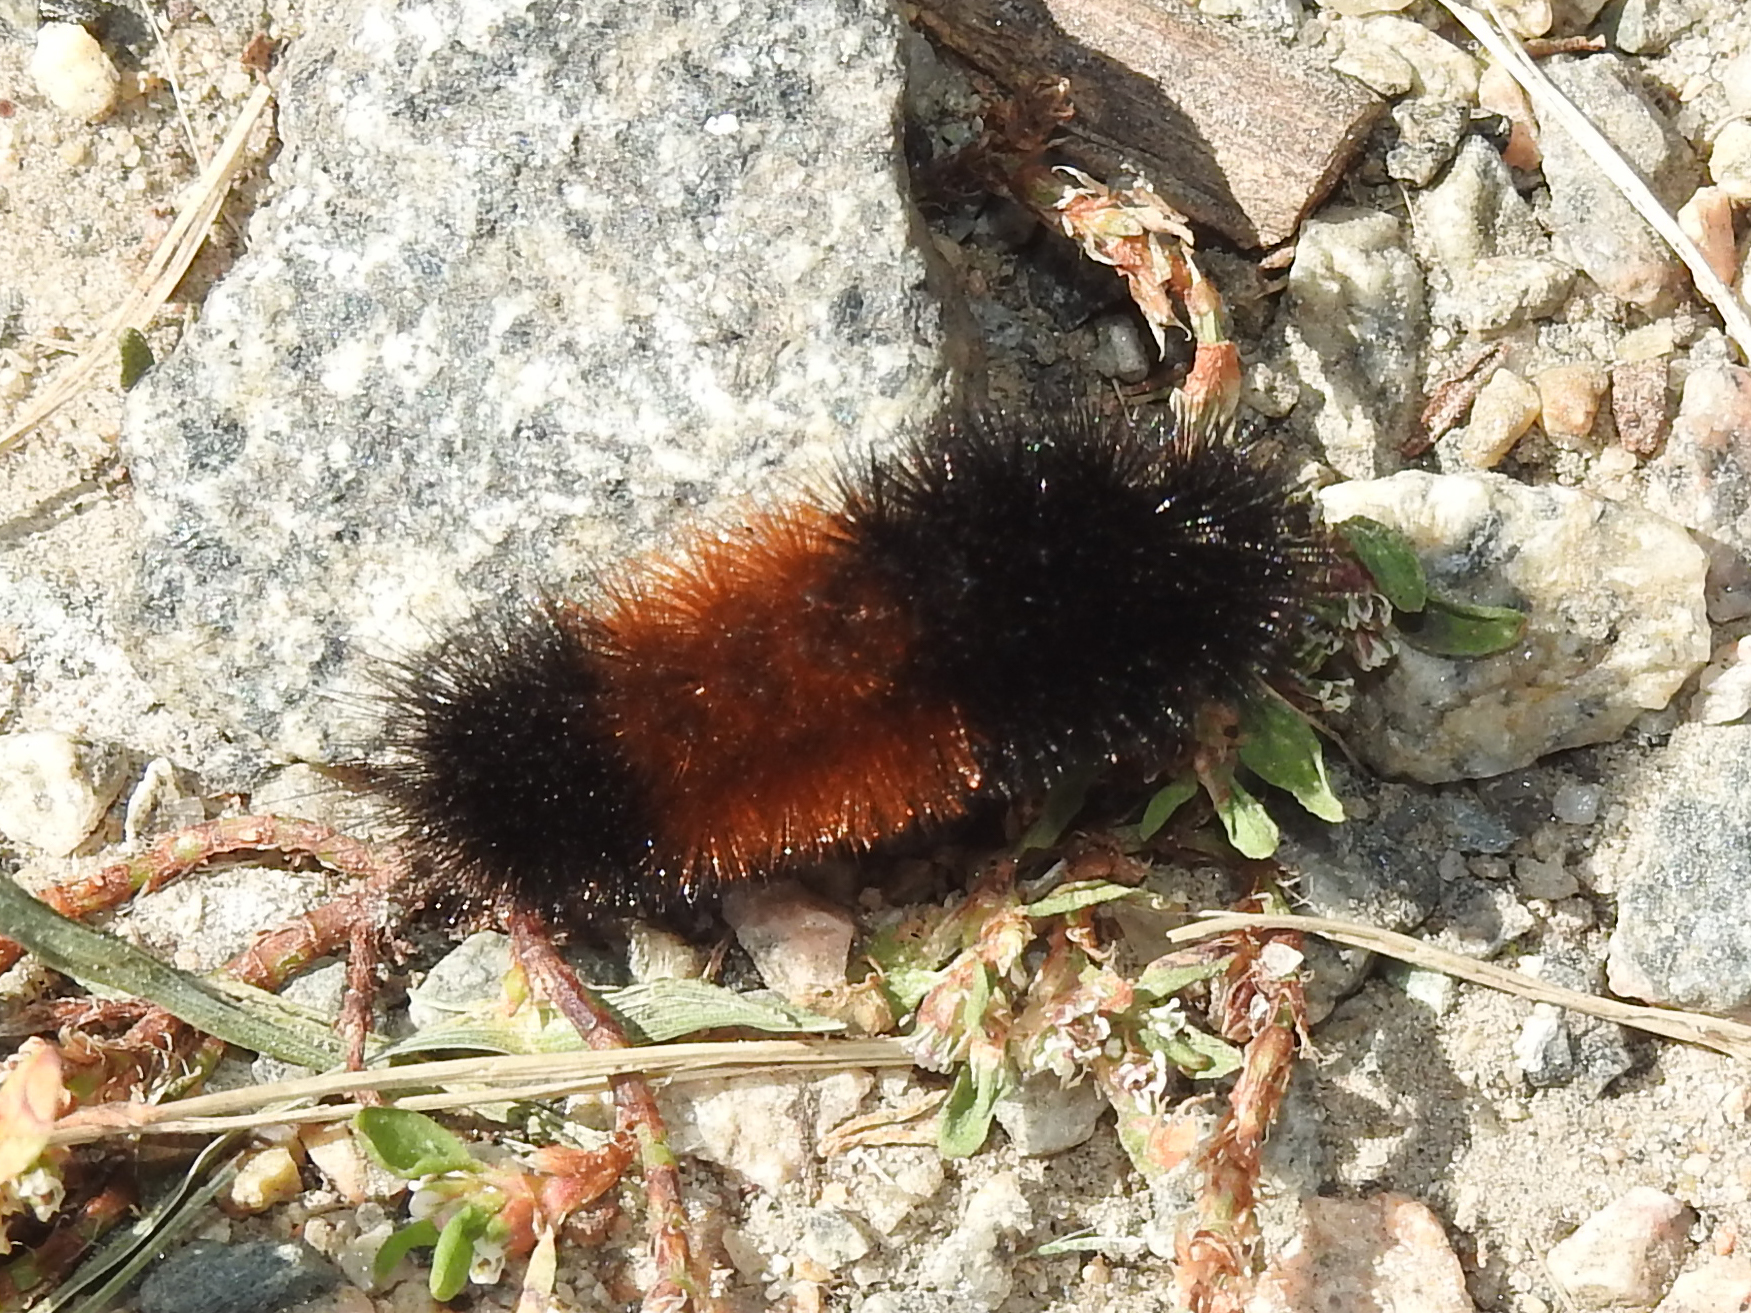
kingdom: Animalia
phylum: Arthropoda
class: Insecta
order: Lepidoptera
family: Erebidae
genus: Pyrrharctia
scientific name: Pyrrharctia isabella
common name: Isabella tiger moth
